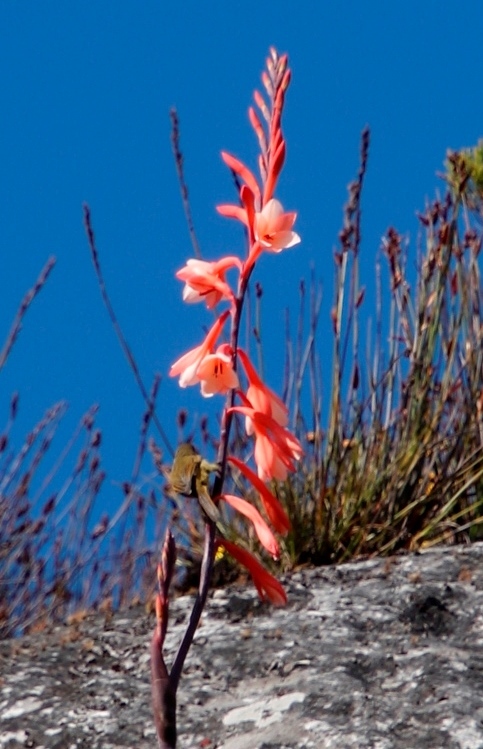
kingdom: Animalia
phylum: Chordata
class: Aves
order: Passeriformes
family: Nectariniidae
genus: Anthobaphes
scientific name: Anthobaphes violacea
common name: Orange-breasted sunbird
